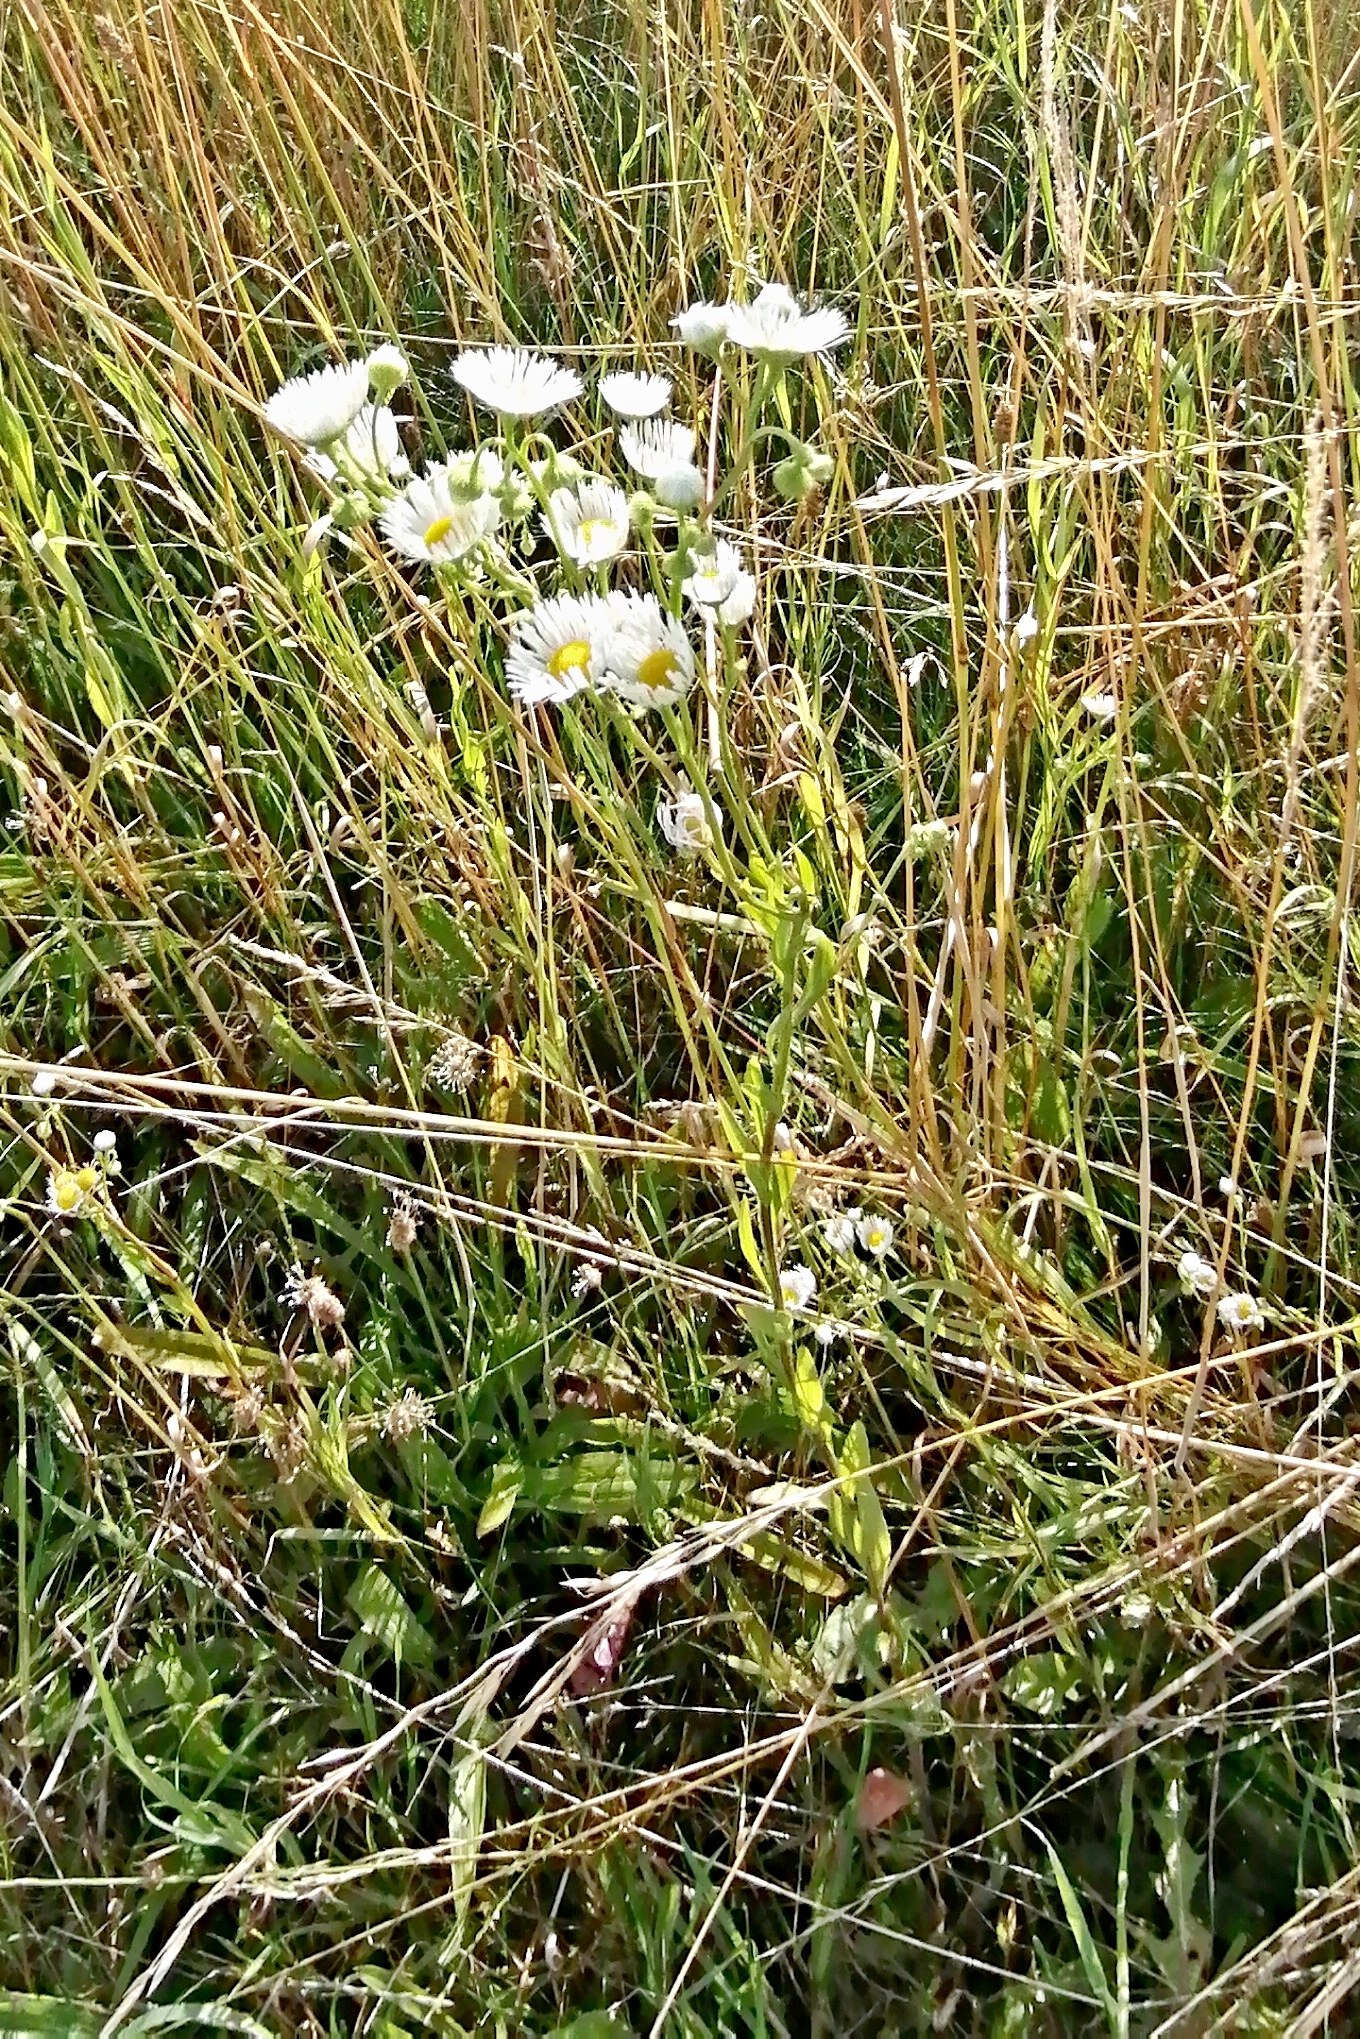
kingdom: Plantae
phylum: Tracheophyta
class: Magnoliopsida
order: Asterales
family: Asteraceae
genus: Erigeron
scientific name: Erigeron annuus
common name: Tall fleabane
